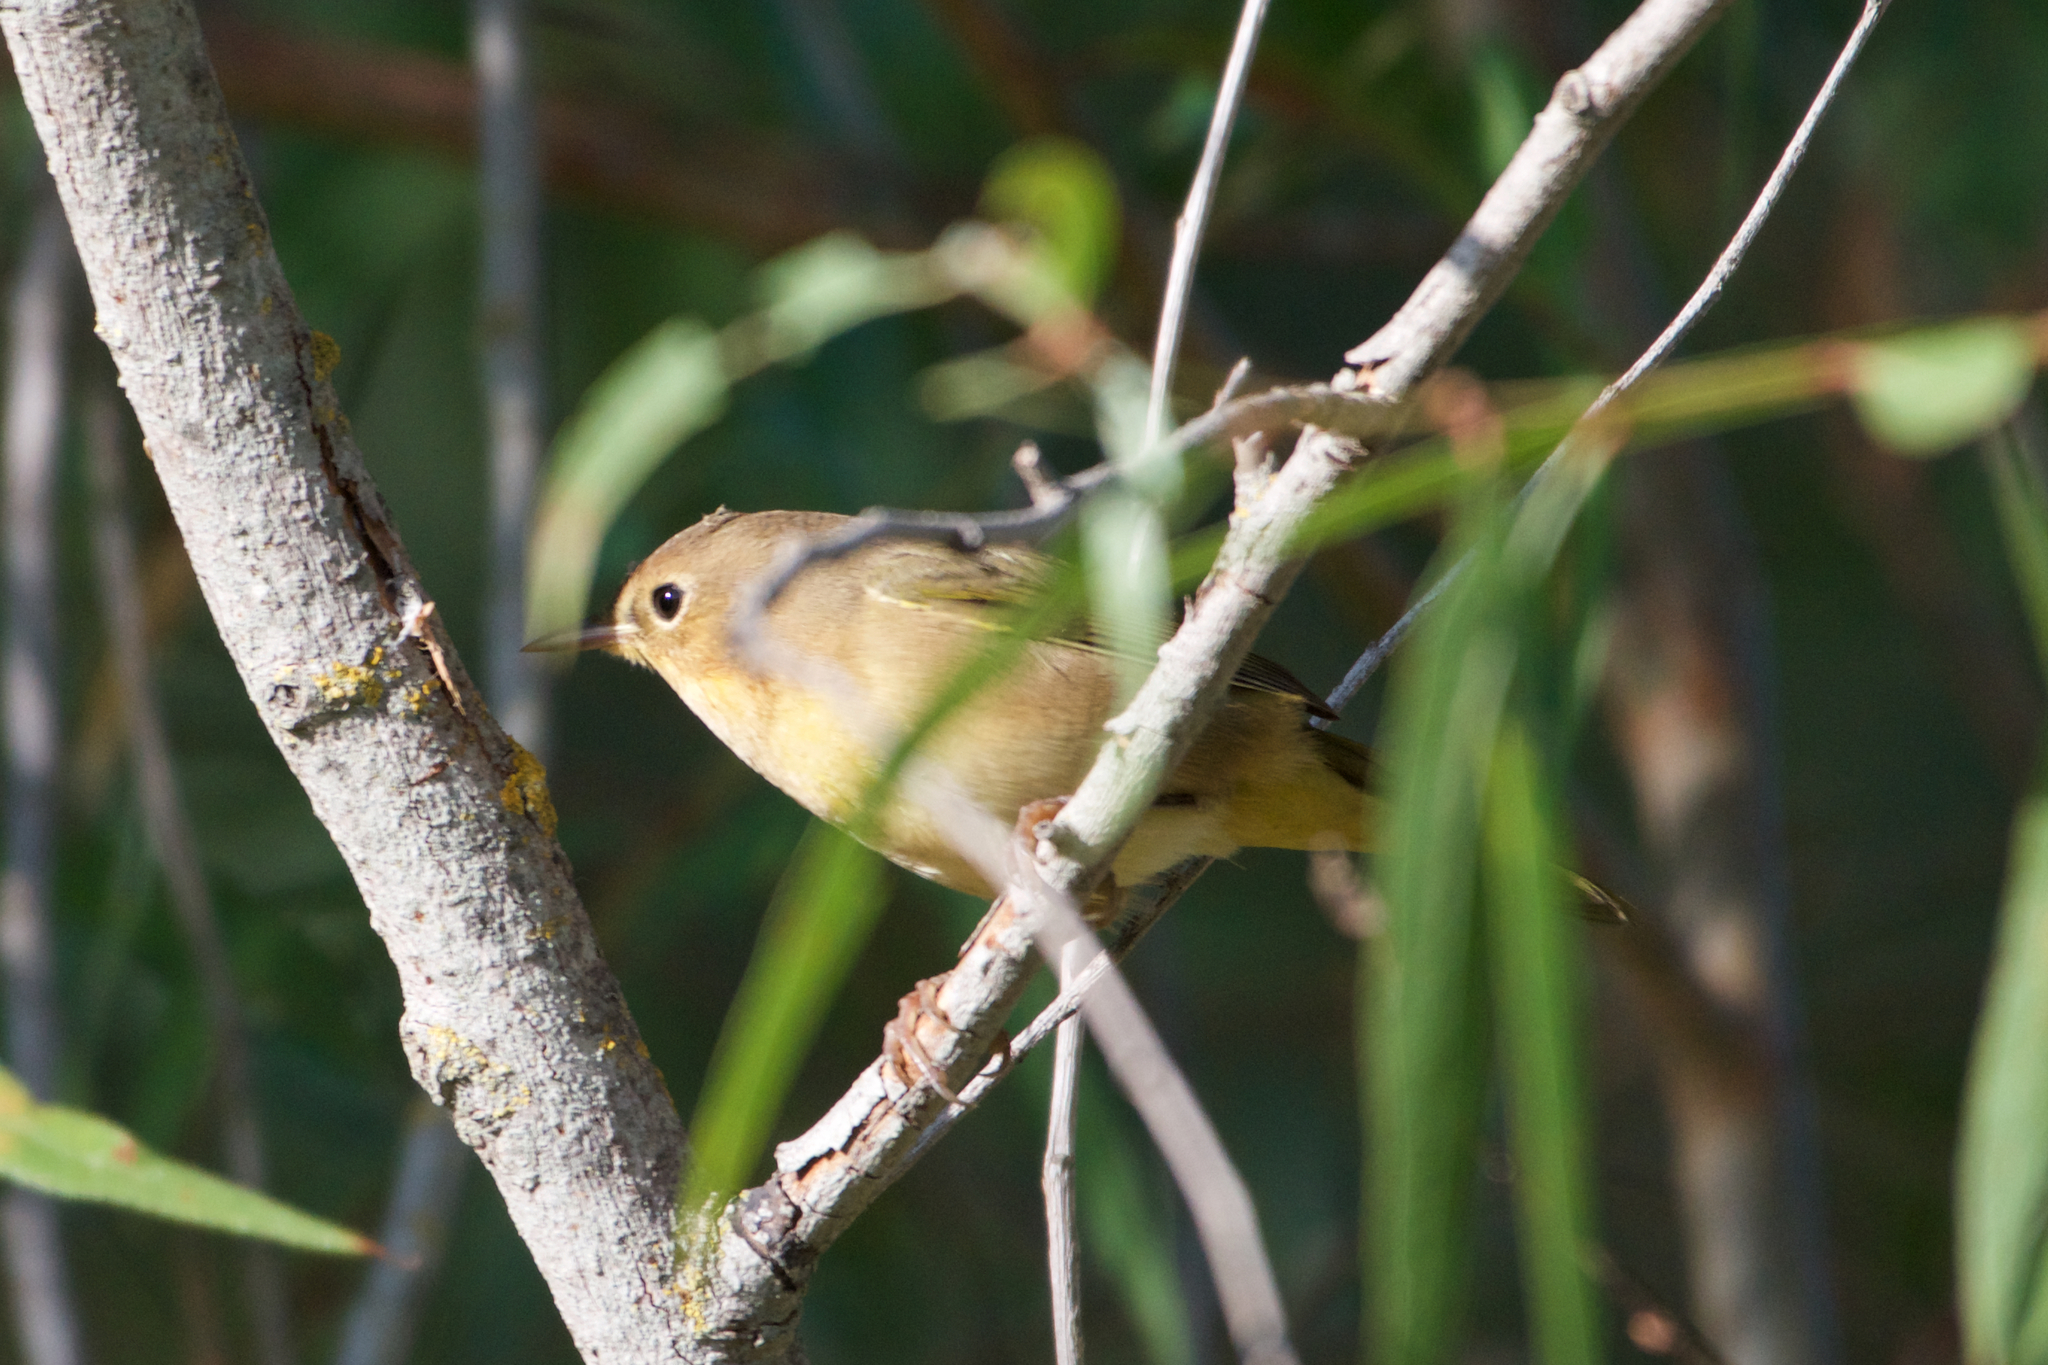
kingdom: Animalia
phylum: Chordata
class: Aves
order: Passeriformes
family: Parulidae
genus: Geothlypis
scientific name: Geothlypis trichas
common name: Common yellowthroat
